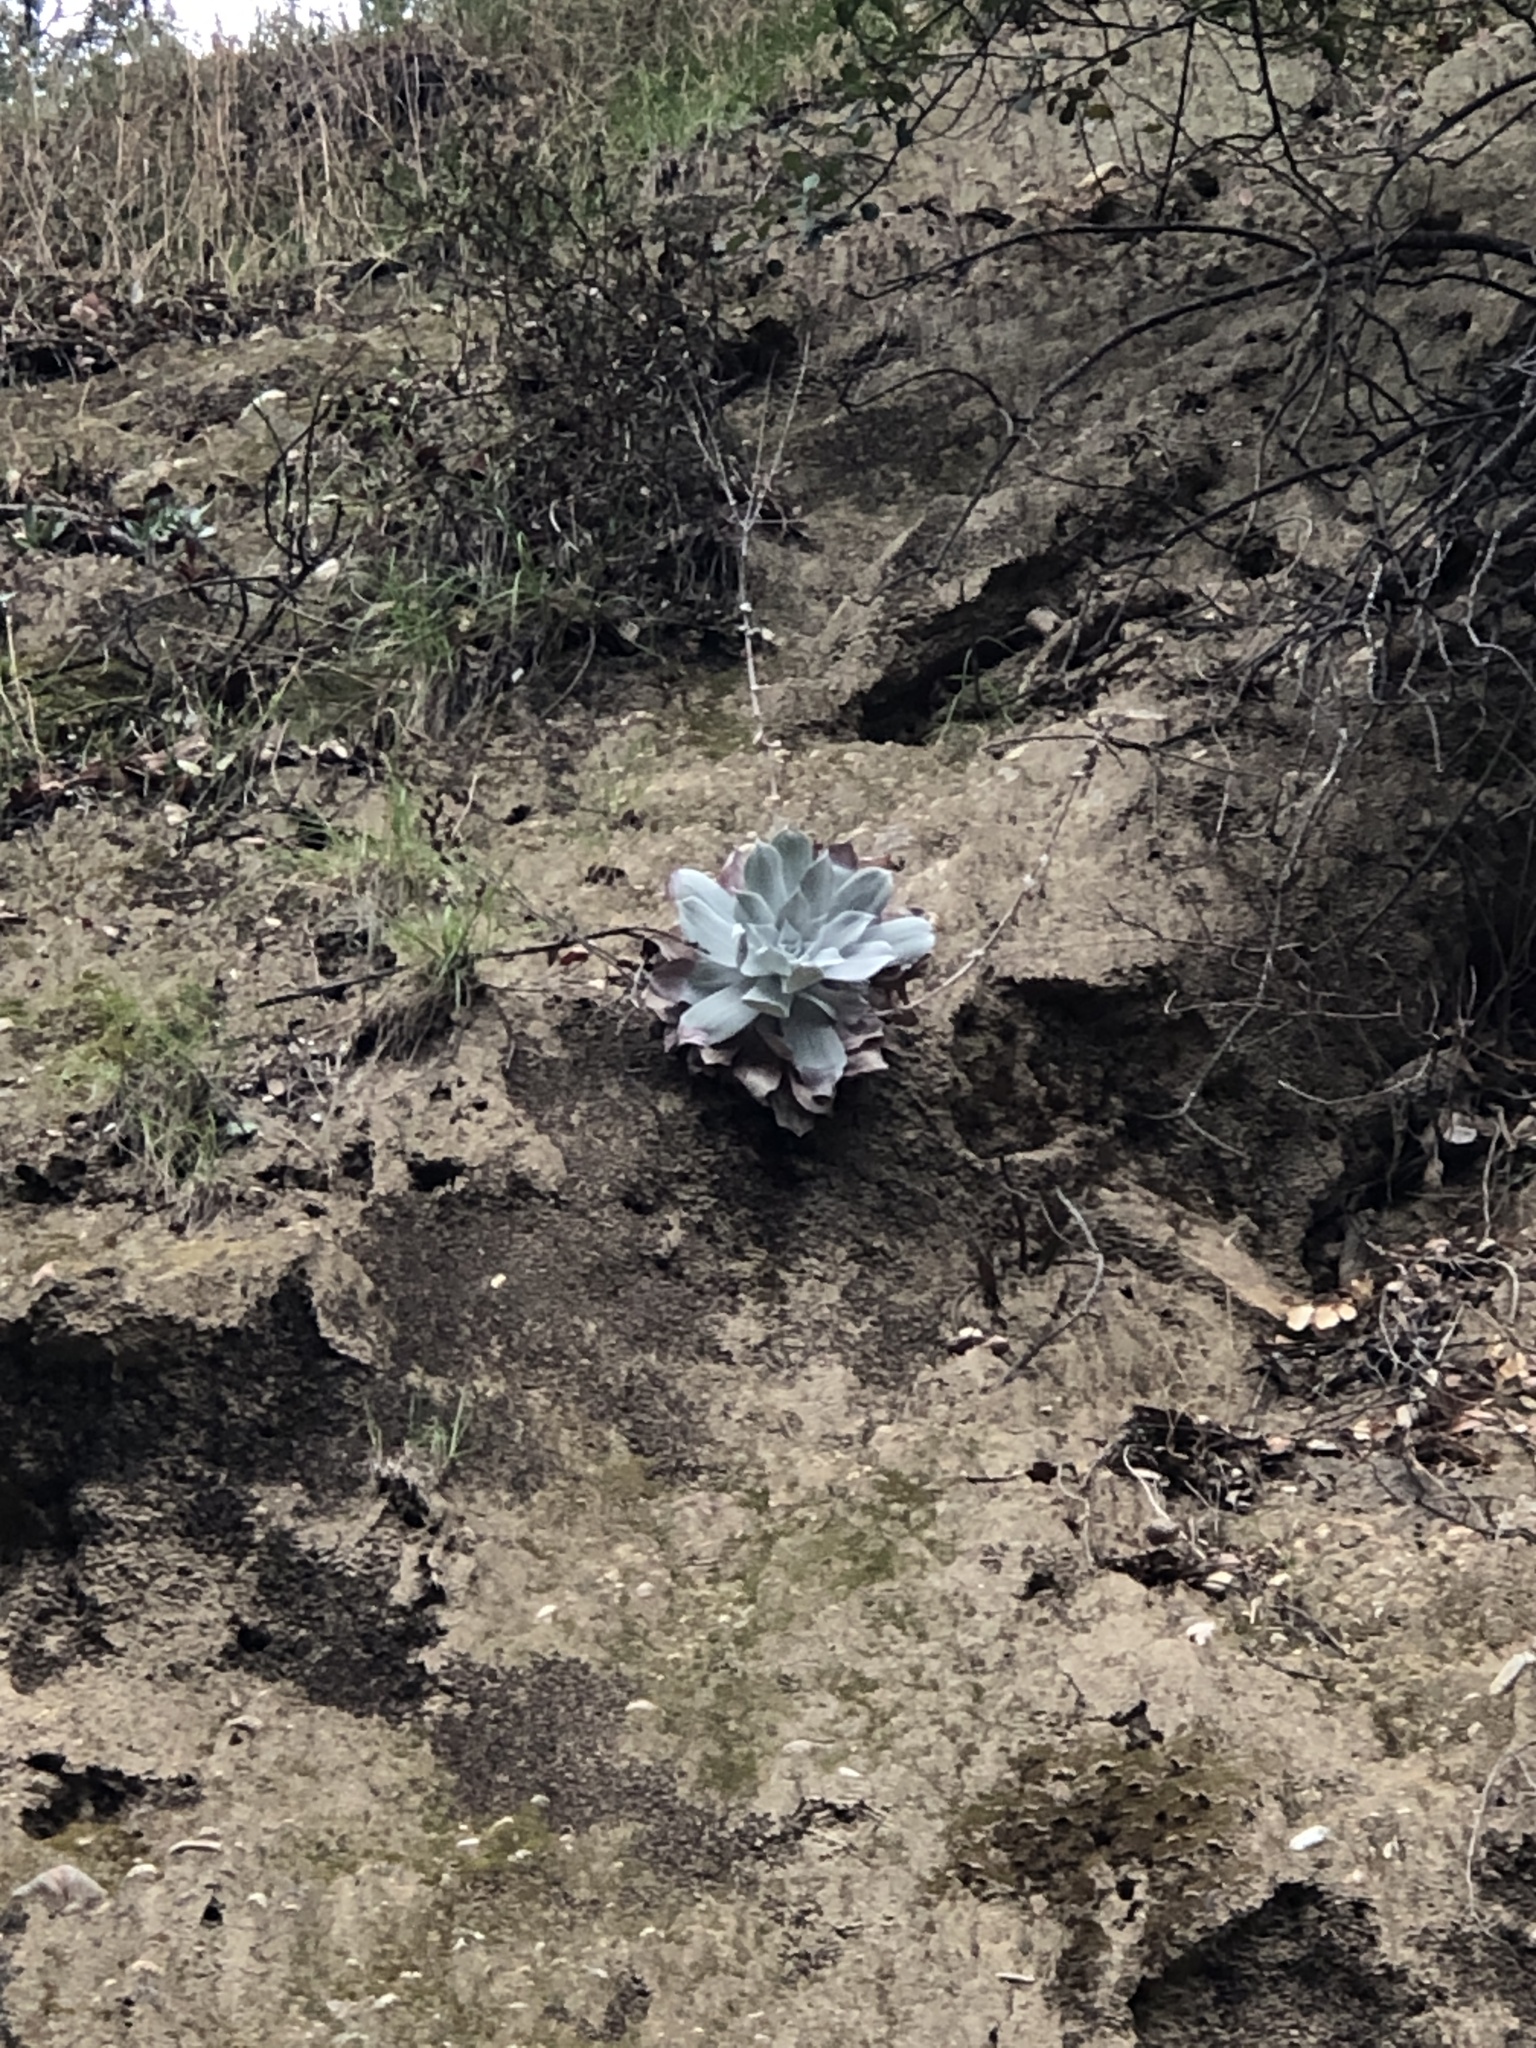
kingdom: Plantae
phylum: Tracheophyta
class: Magnoliopsida
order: Saxifragales
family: Crassulaceae
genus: Dudleya
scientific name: Dudleya pulverulenta
